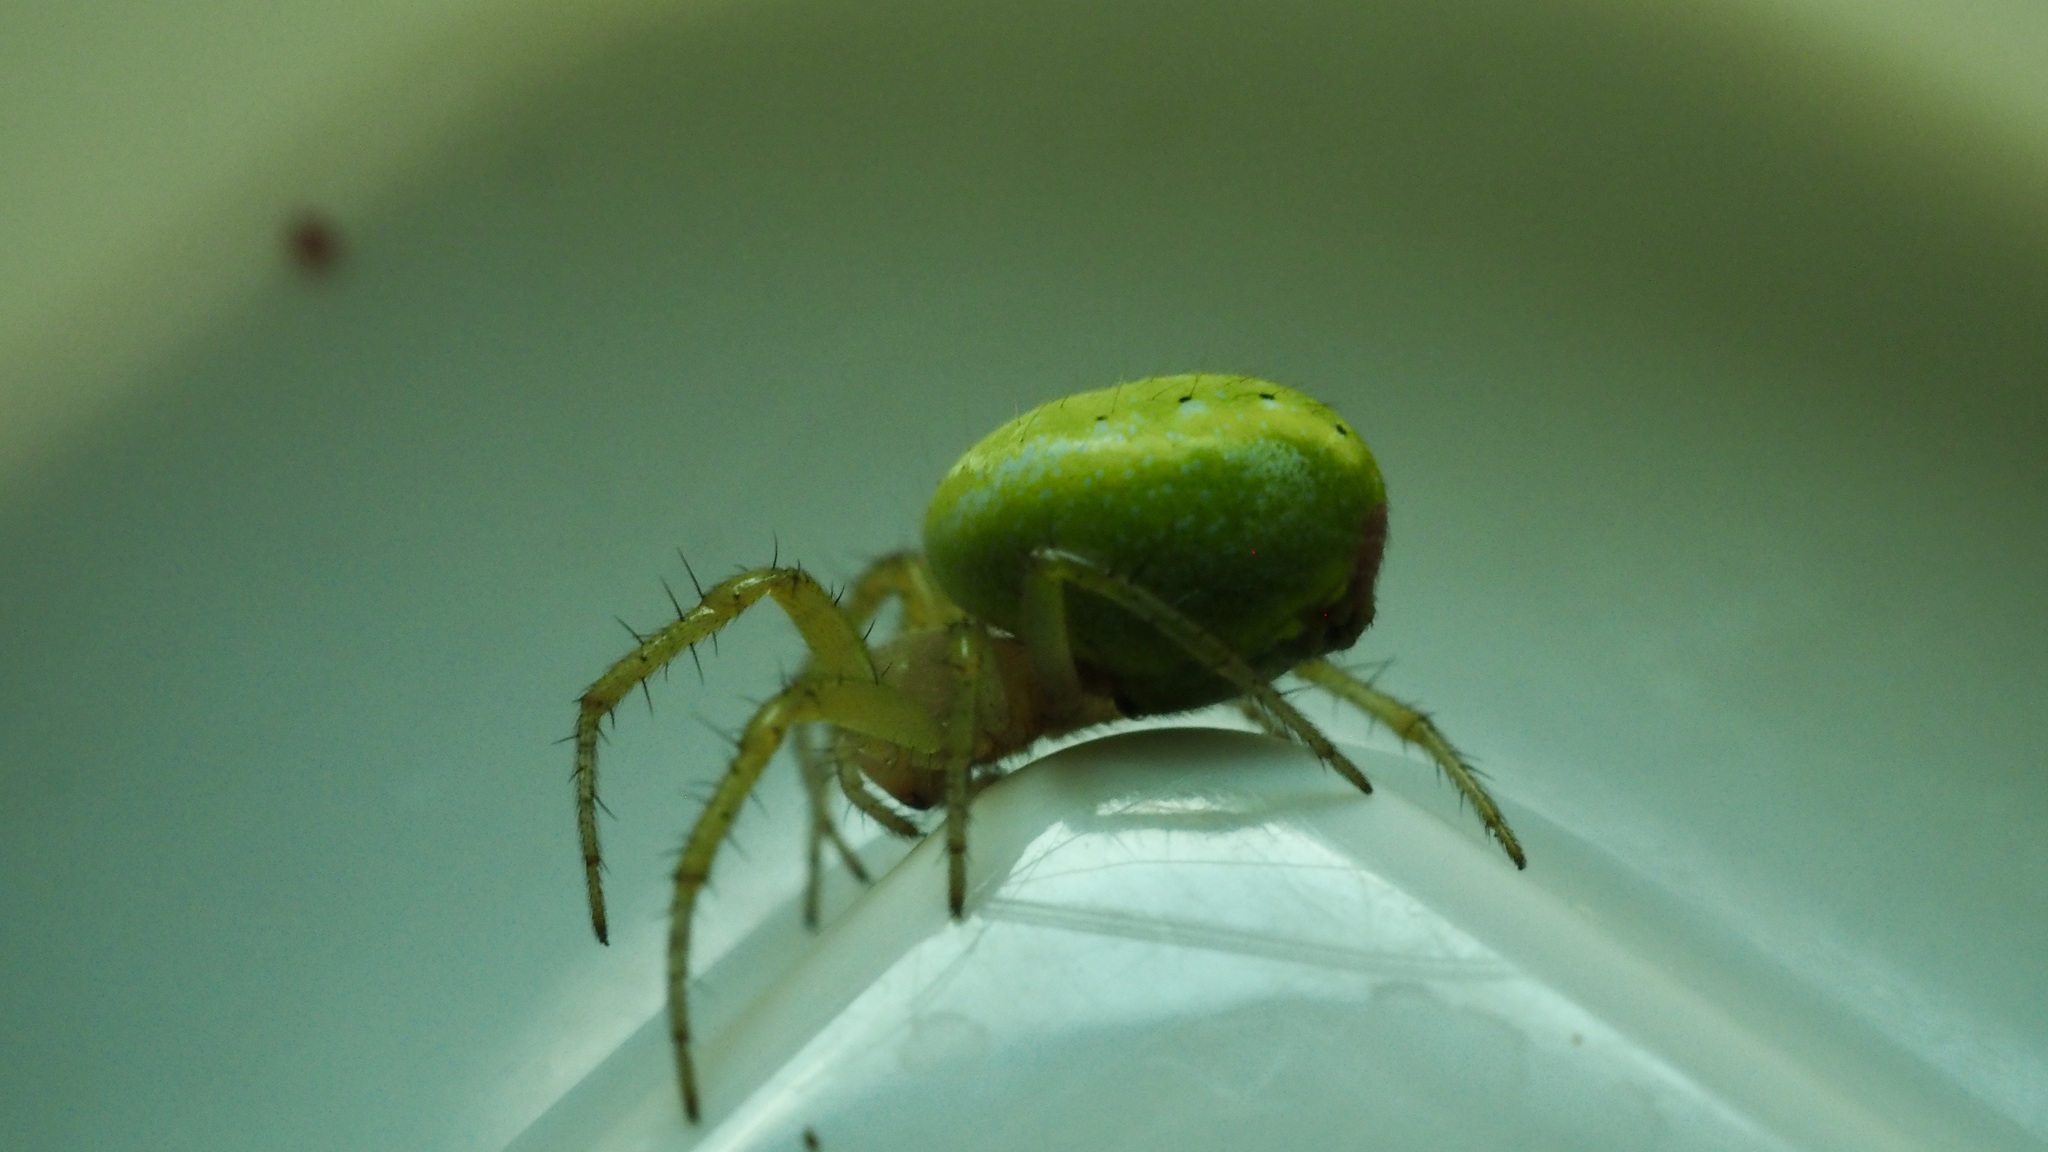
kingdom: Animalia
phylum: Arthropoda
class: Arachnida
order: Araneae
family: Araneidae
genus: Araniella
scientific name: Araniella cucurbitina
